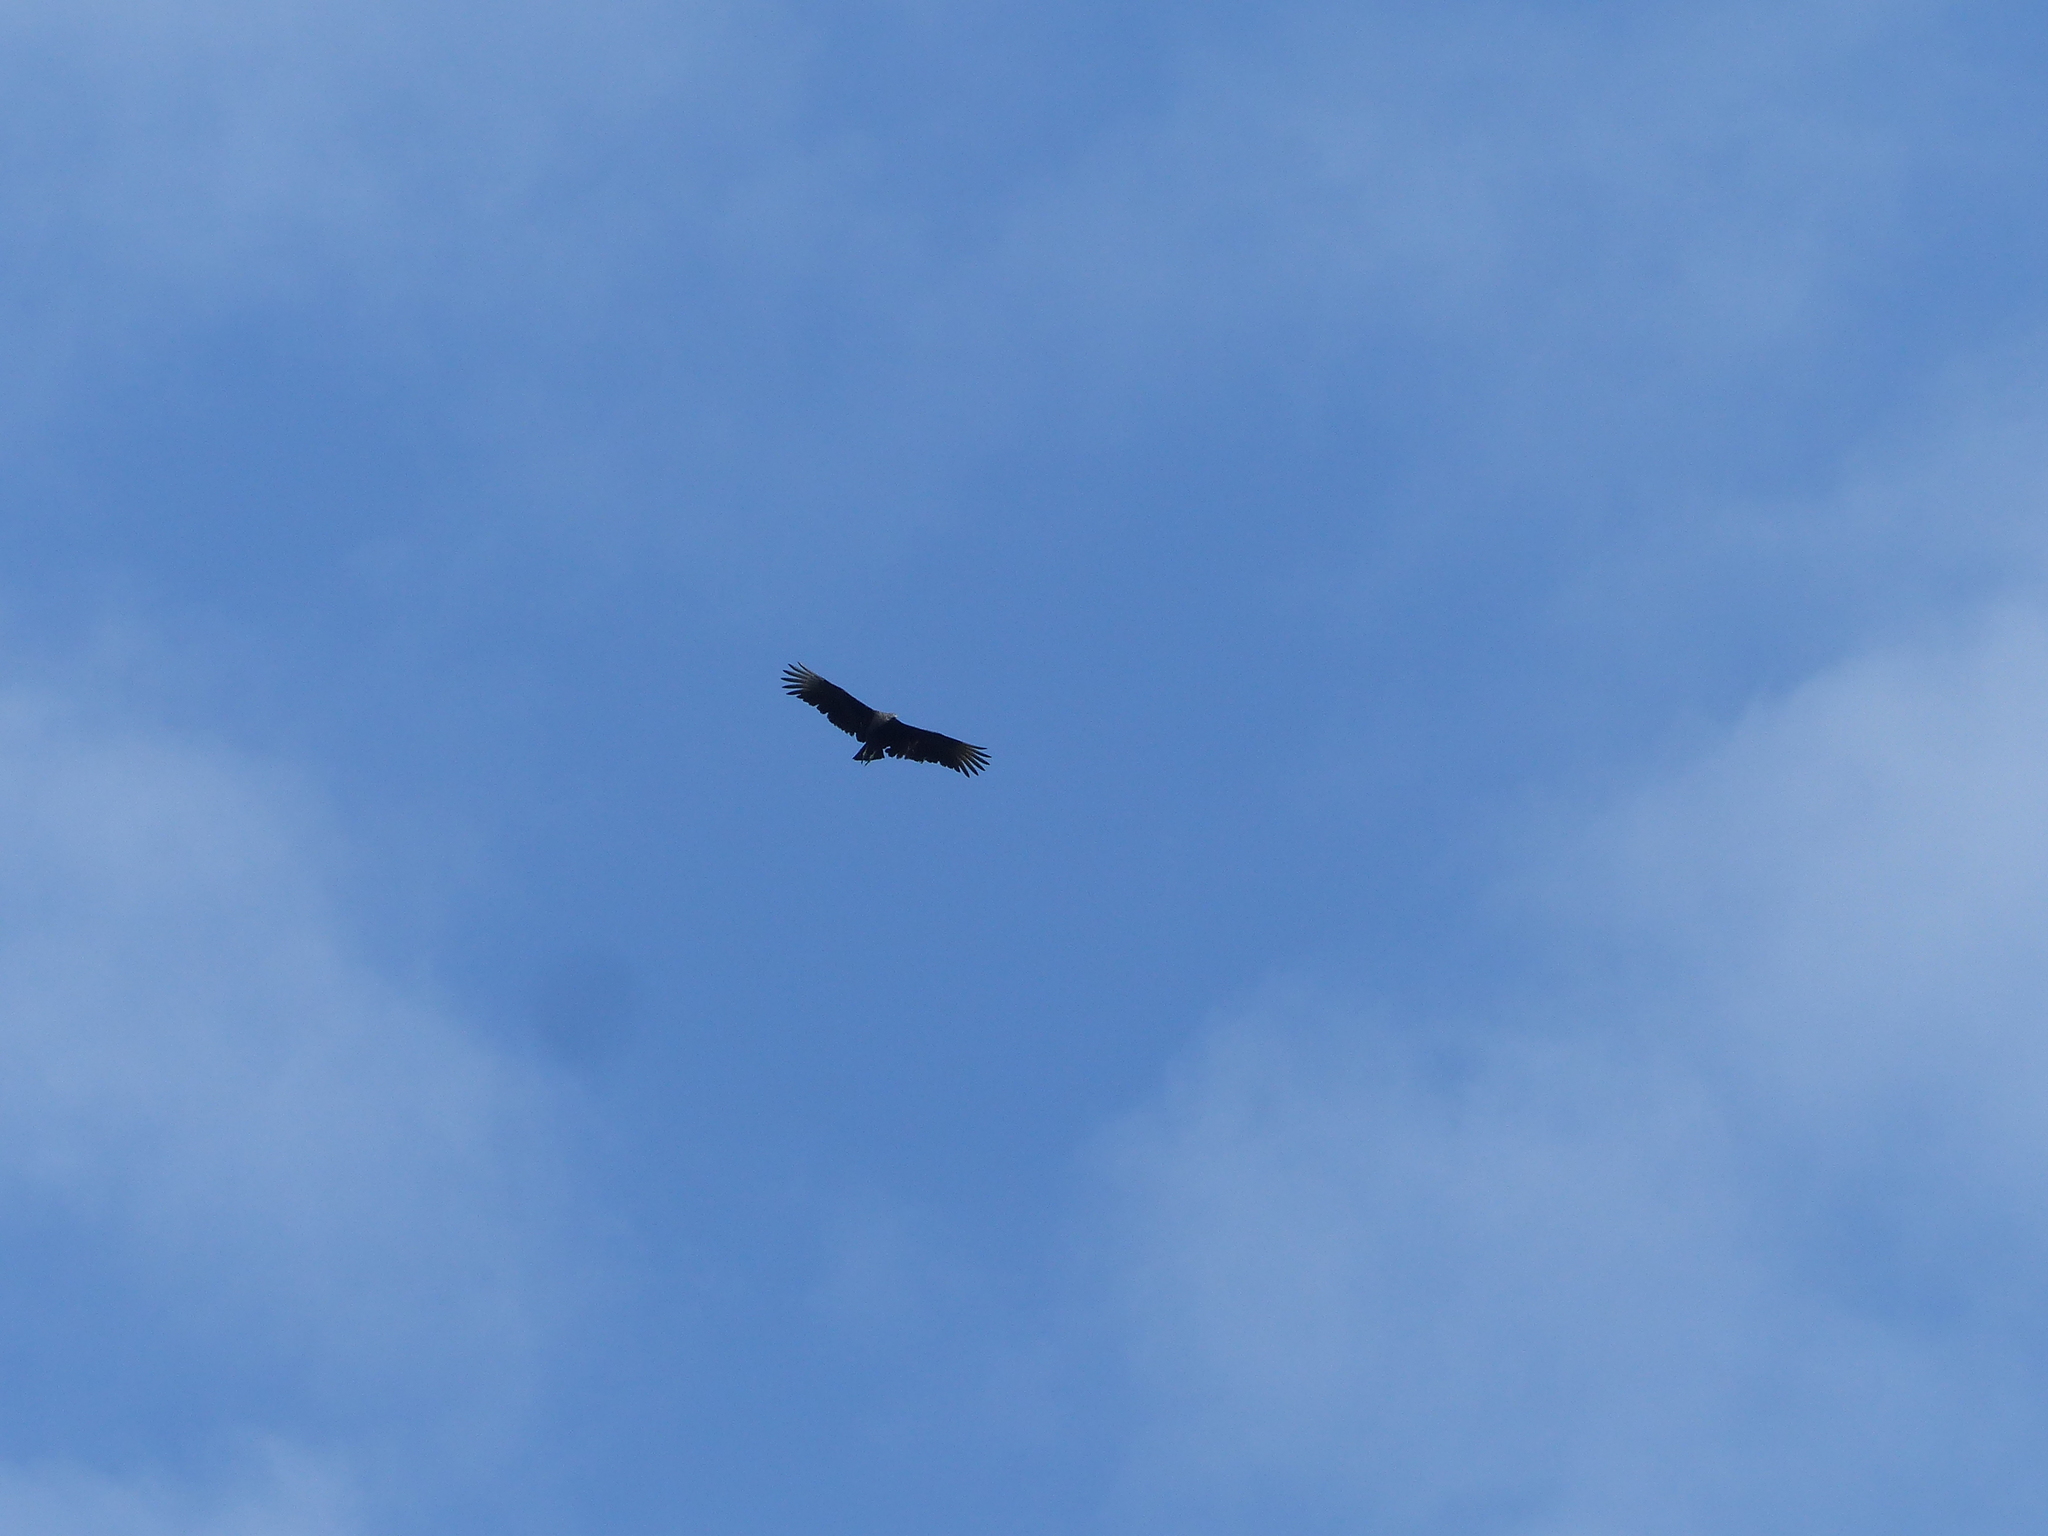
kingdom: Animalia
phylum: Chordata
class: Aves
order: Accipitriformes
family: Cathartidae
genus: Coragyps
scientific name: Coragyps atratus
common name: Black vulture
